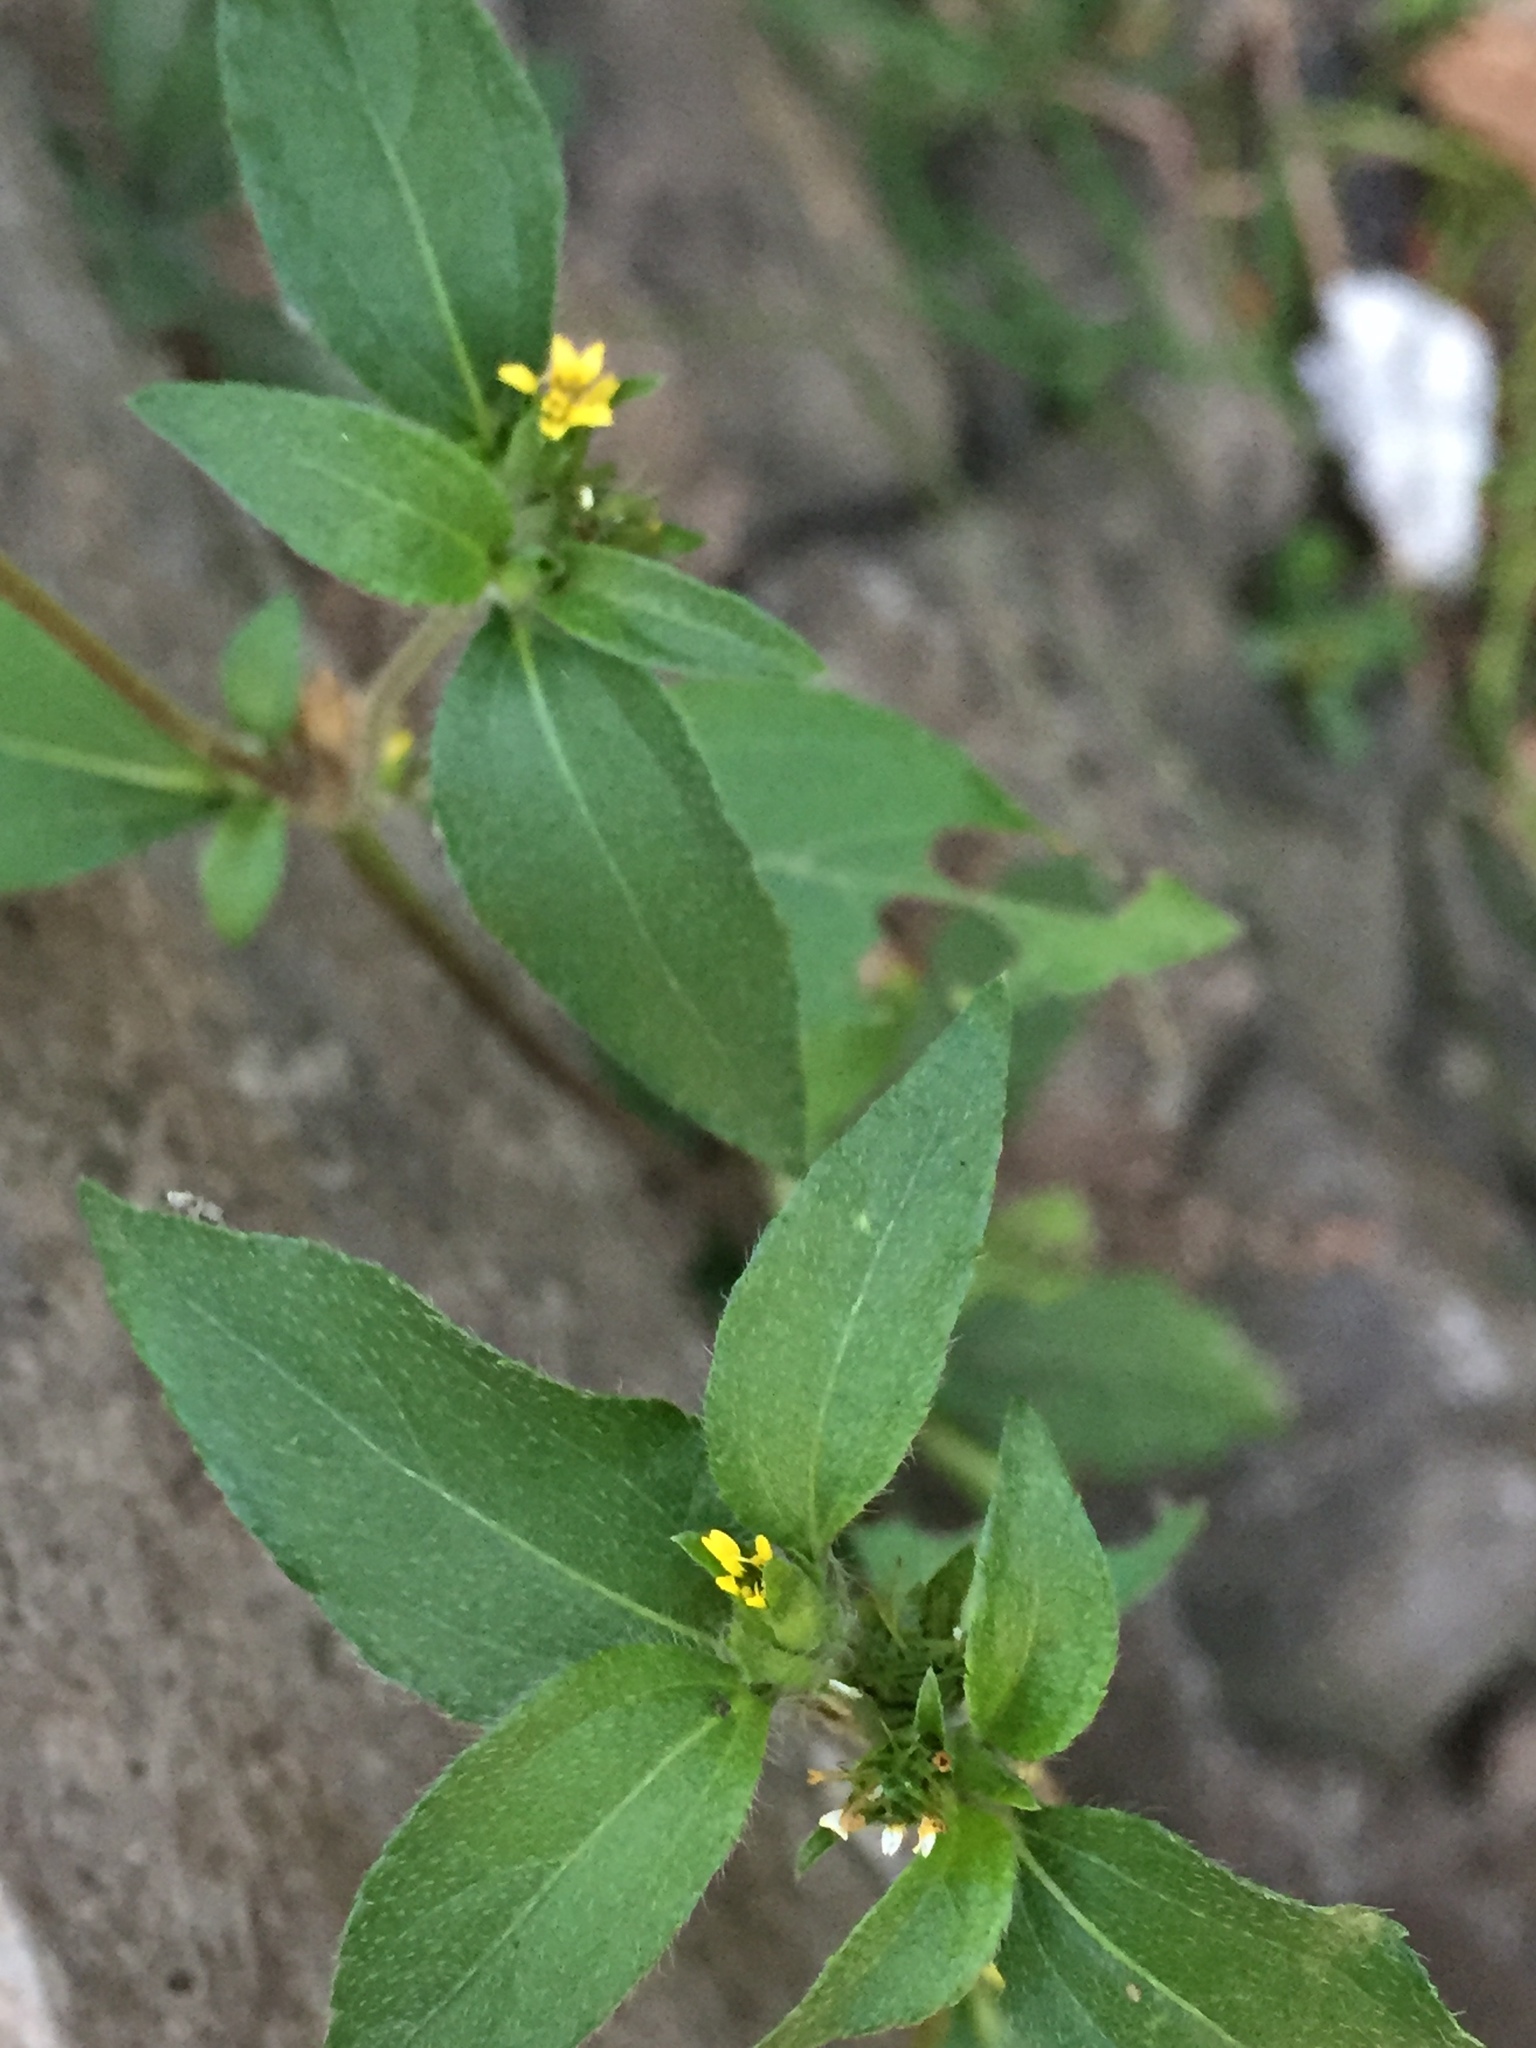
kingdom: Plantae
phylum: Tracheophyta
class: Magnoliopsida
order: Asterales
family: Asteraceae
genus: Synedrella
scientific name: Synedrella nodiflora
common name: Nodeweed
